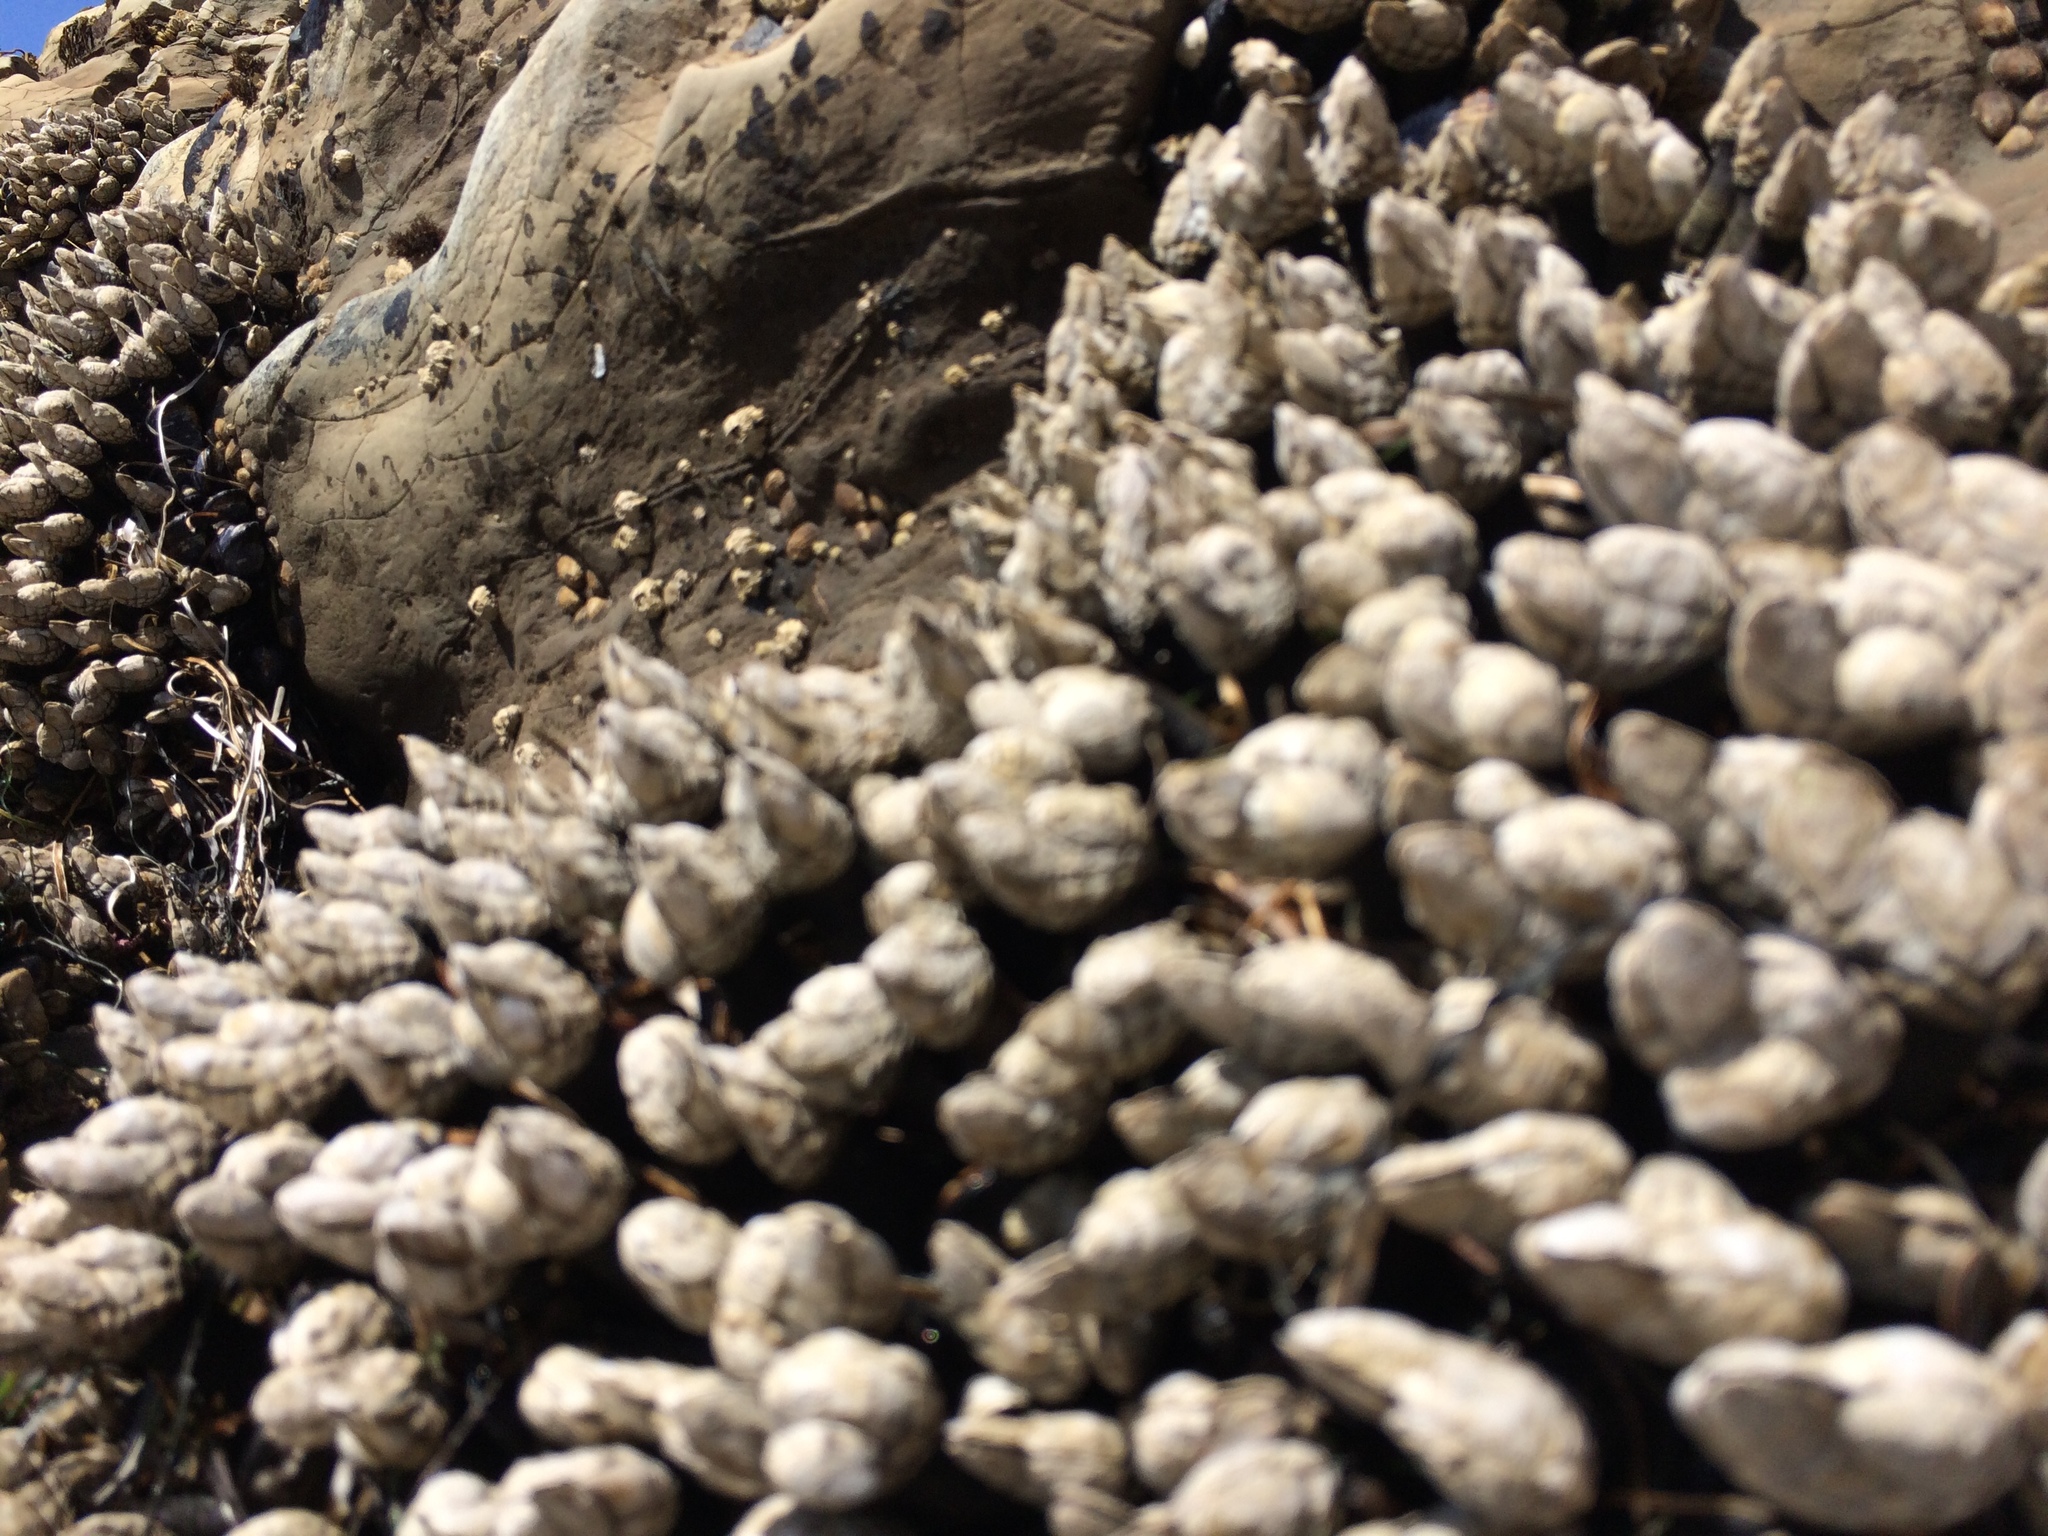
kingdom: Animalia
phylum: Arthropoda
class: Maxillopoda
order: Pedunculata
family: Pollicipedidae
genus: Pollicipes
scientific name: Pollicipes polymerus
